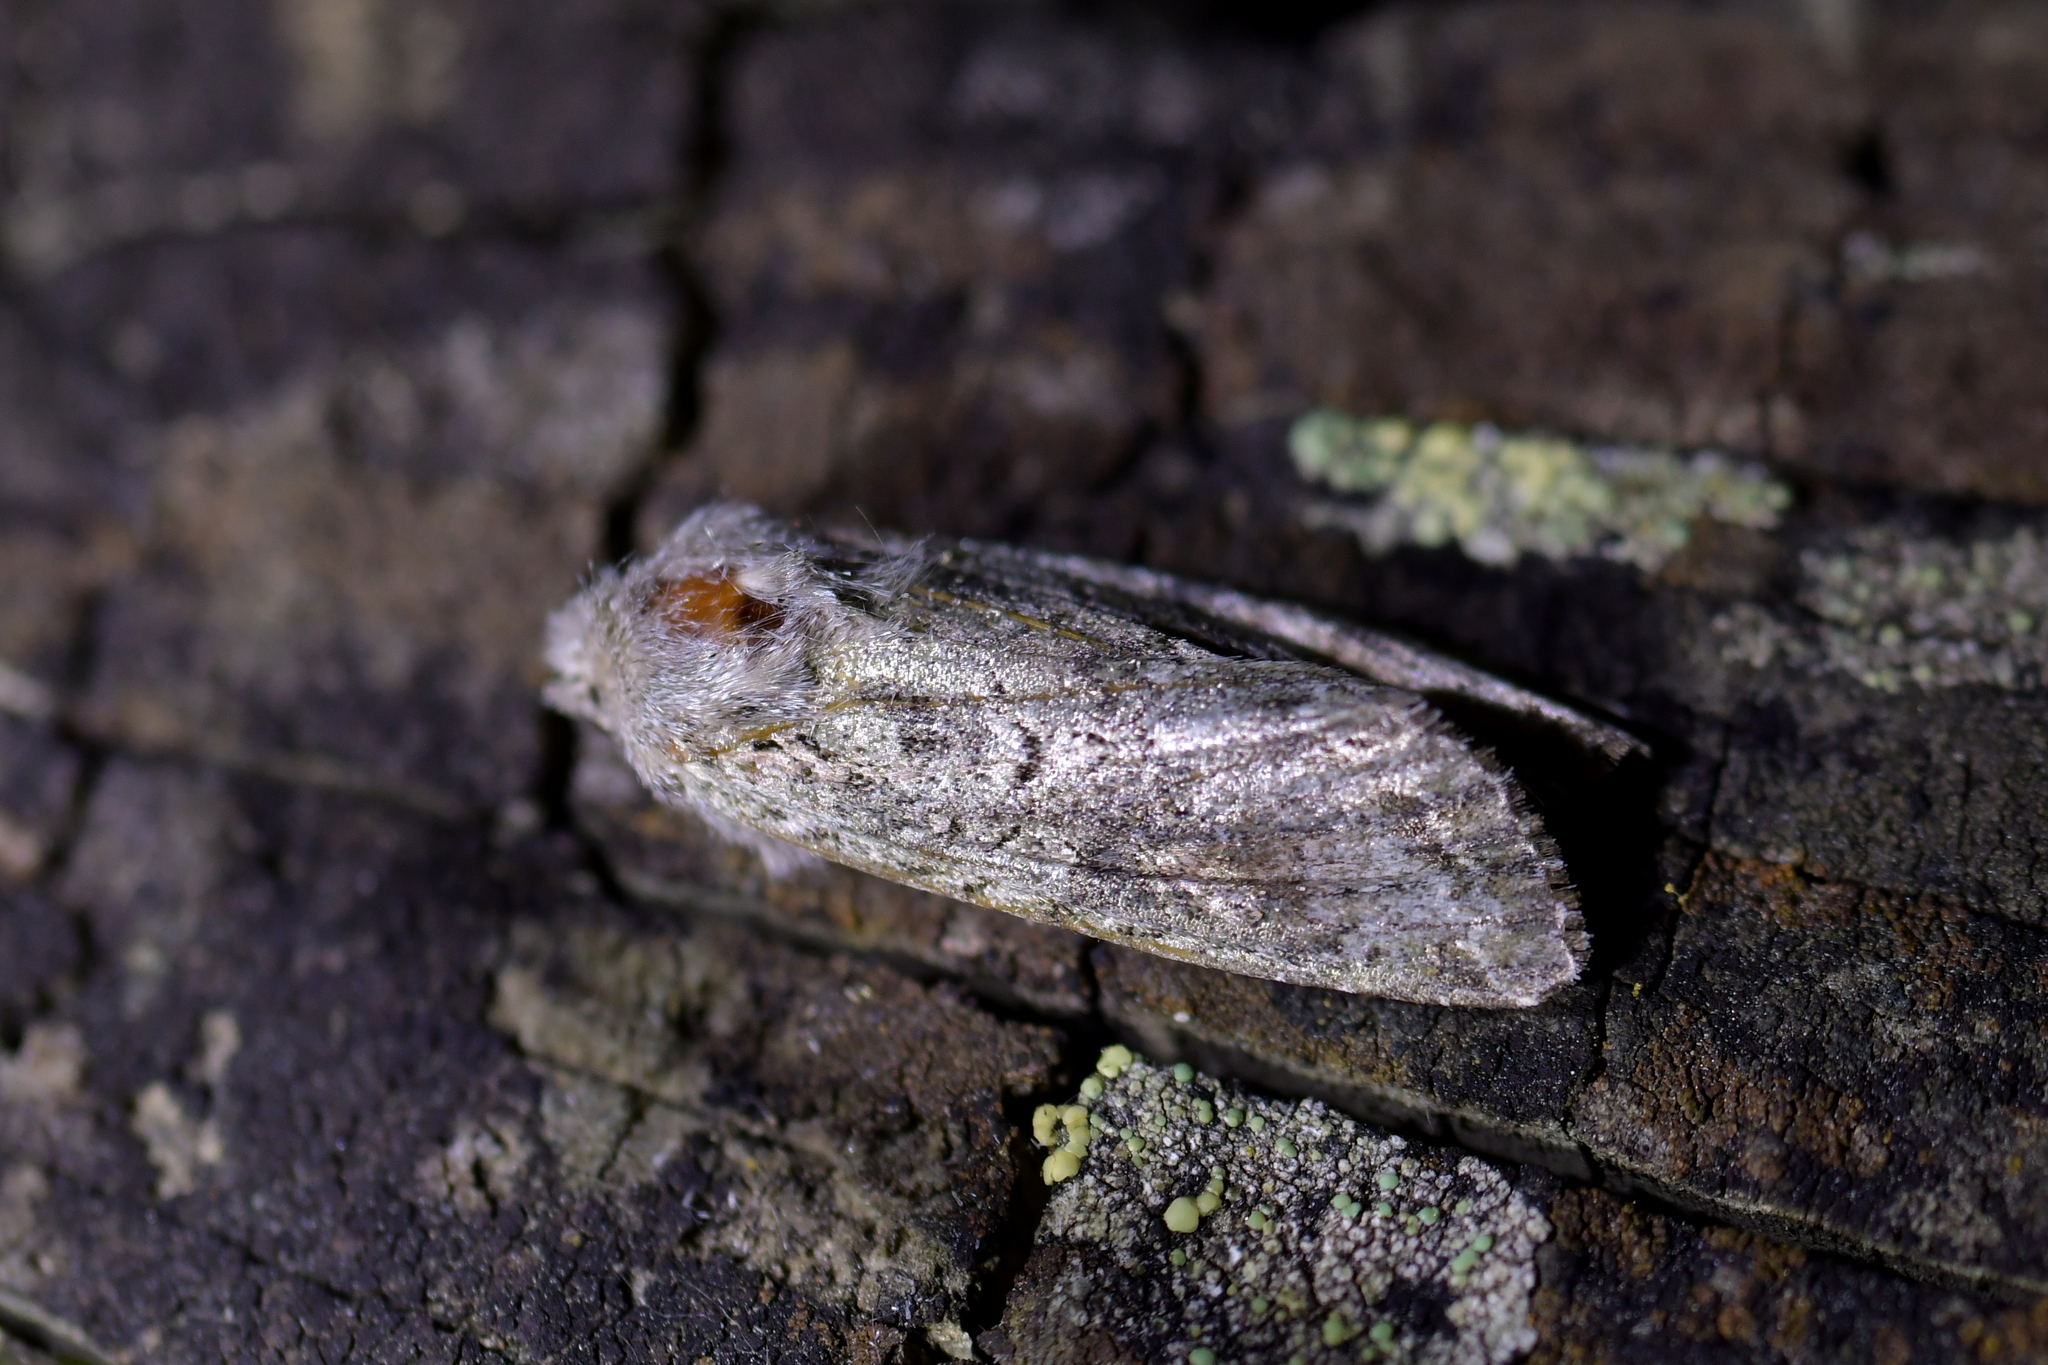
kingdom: Animalia
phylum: Arthropoda
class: Insecta
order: Lepidoptera
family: Noctuidae
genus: Ichneutica
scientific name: Ichneutica mutans
